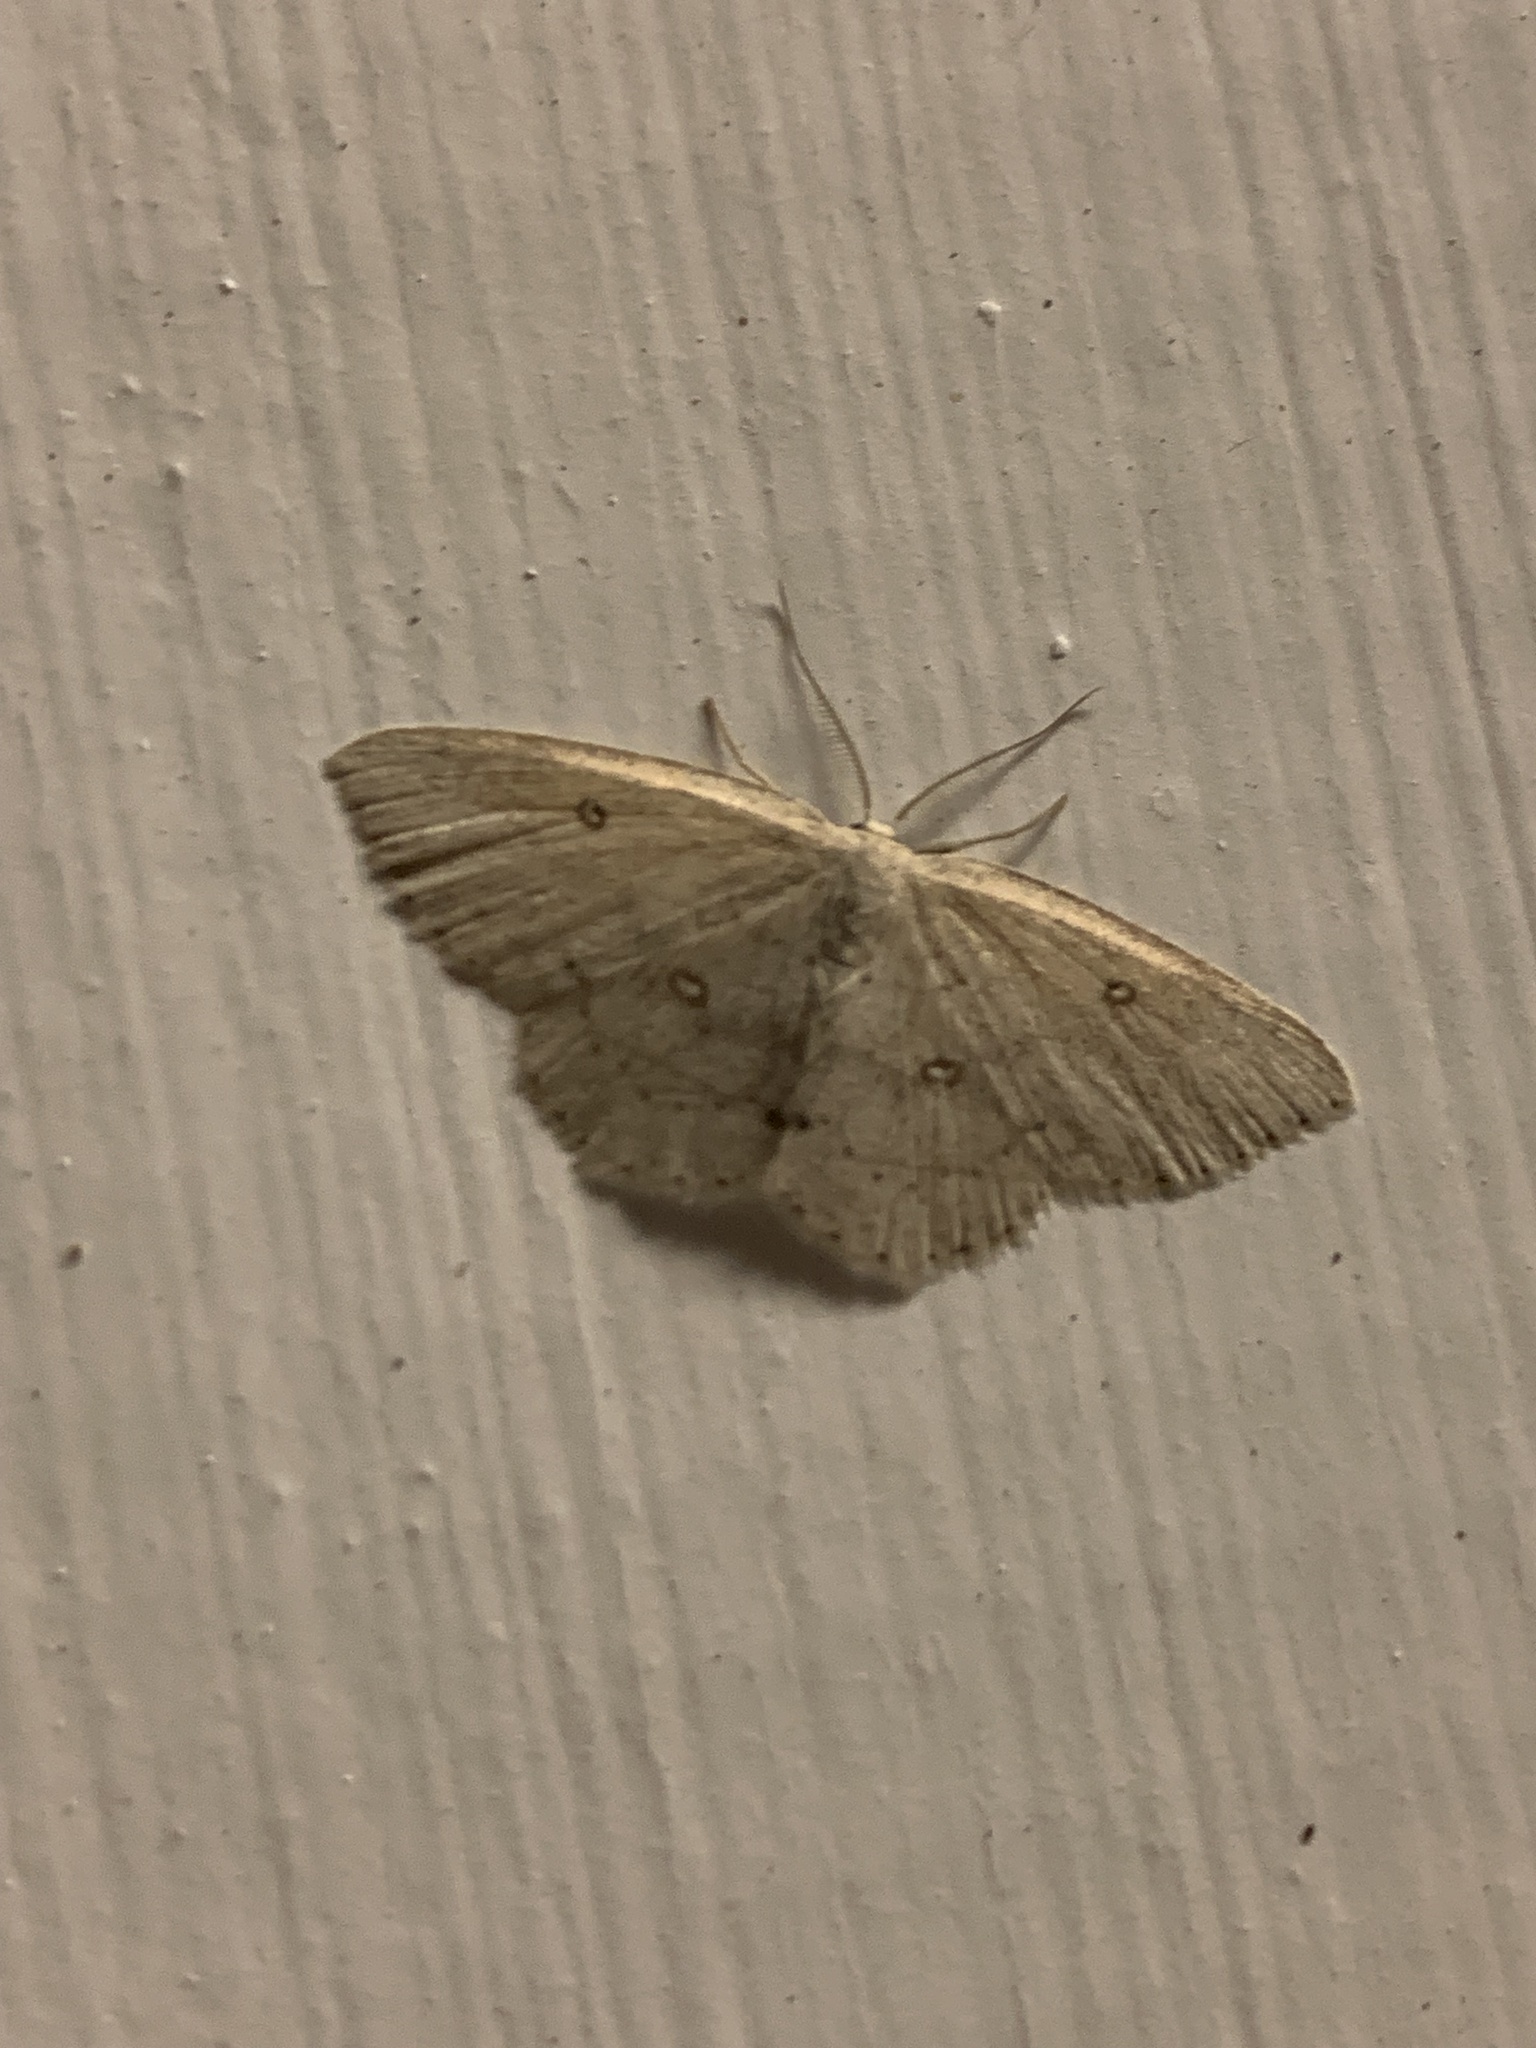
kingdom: Animalia
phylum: Arthropoda
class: Insecta
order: Lepidoptera
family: Geometridae
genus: Cyclophora
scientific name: Cyclophora pendulinaria
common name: Sweet fern geometer
